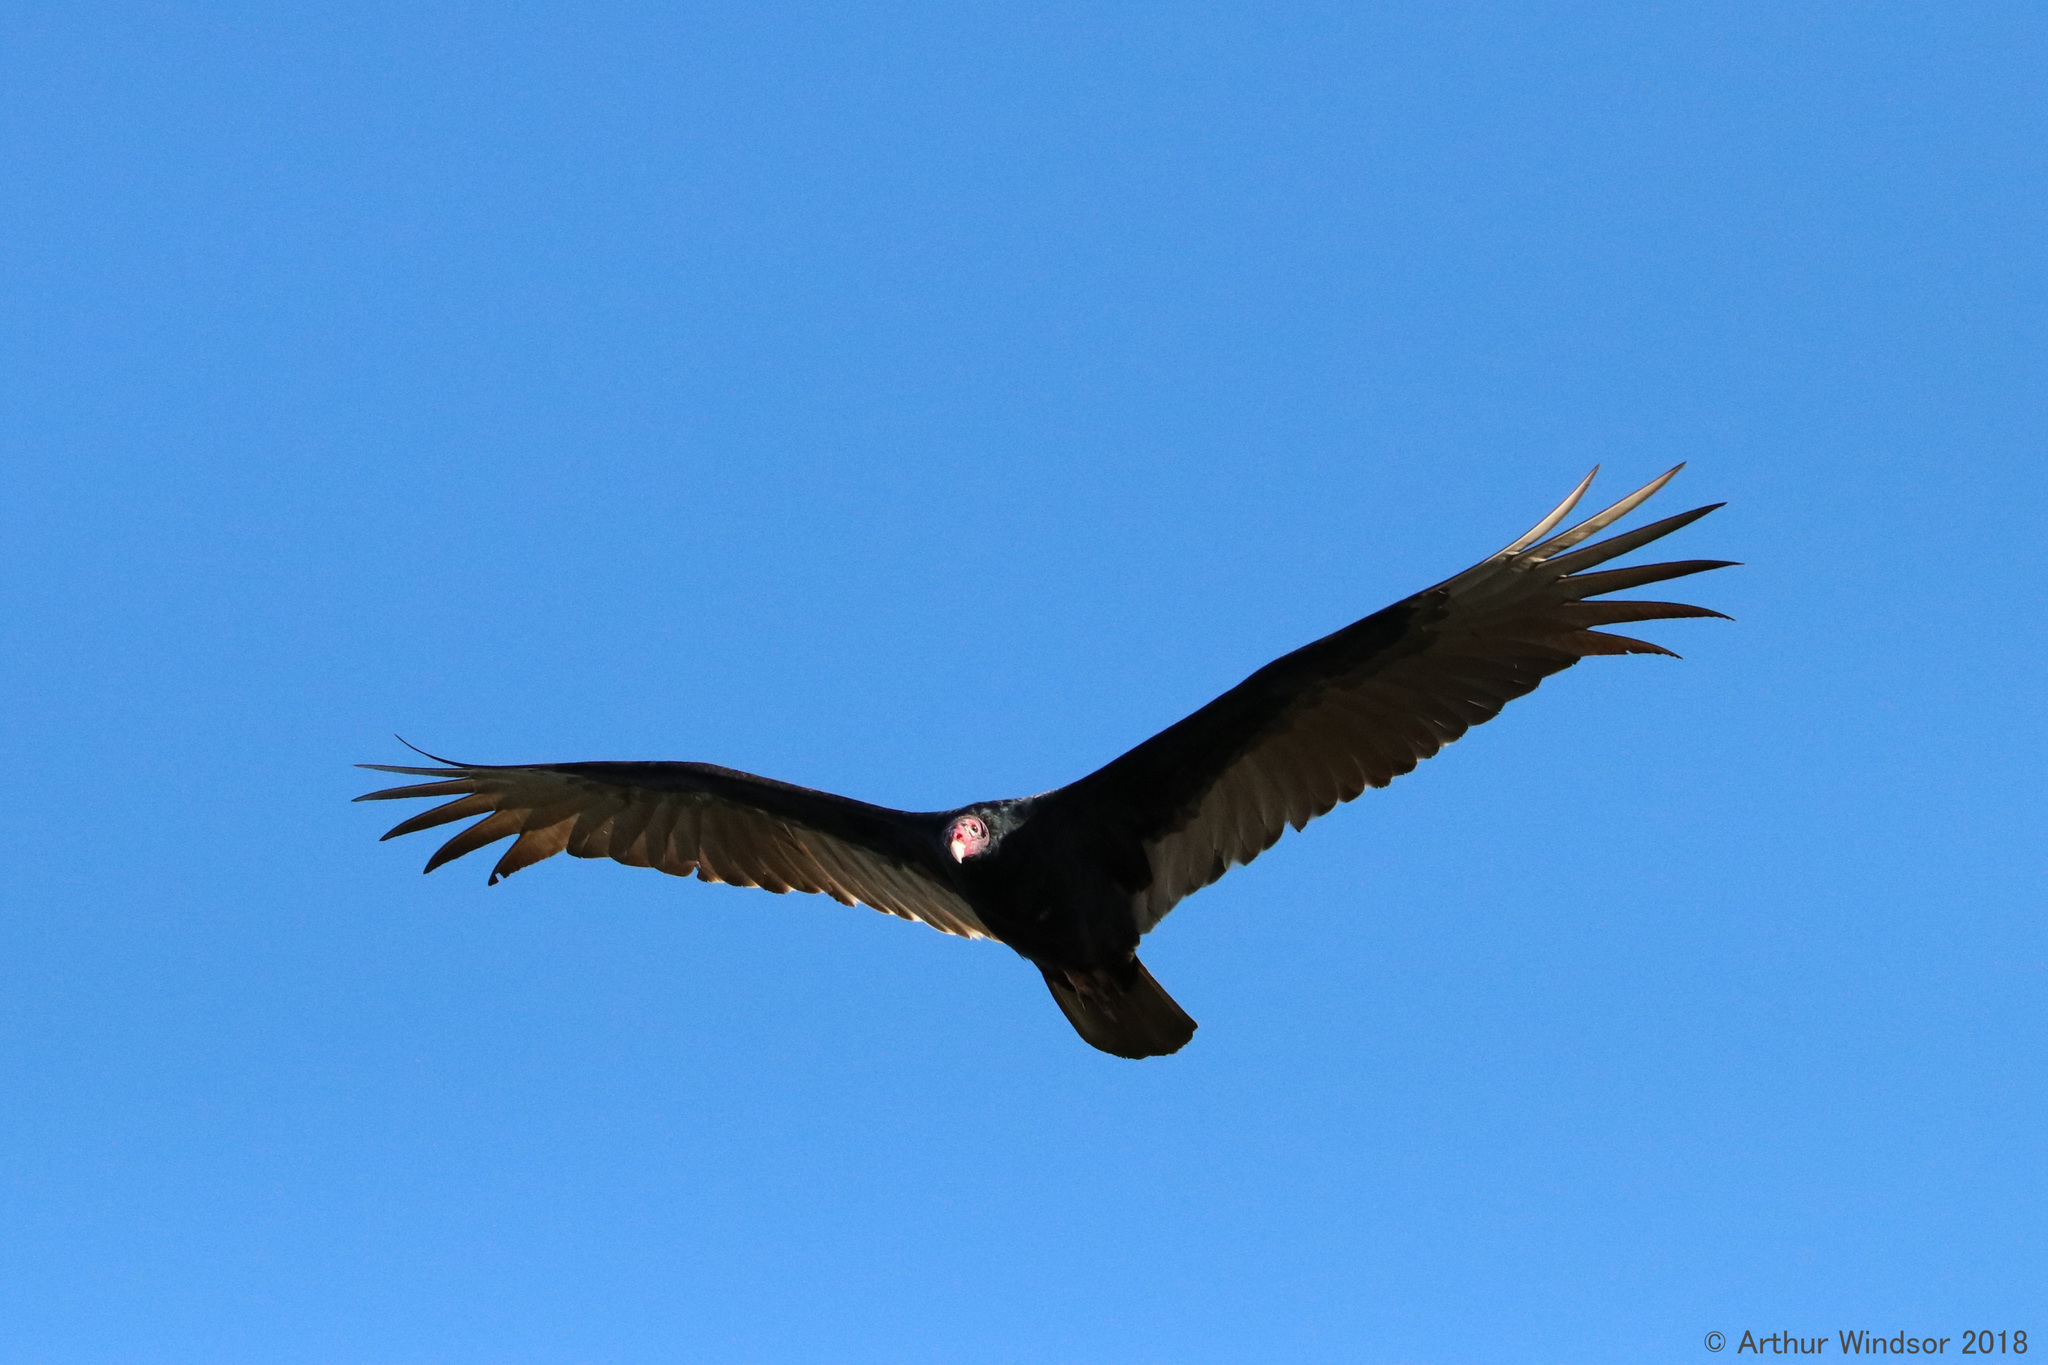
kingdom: Animalia
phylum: Chordata
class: Aves
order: Accipitriformes
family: Cathartidae
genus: Cathartes
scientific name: Cathartes aura
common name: Turkey vulture
